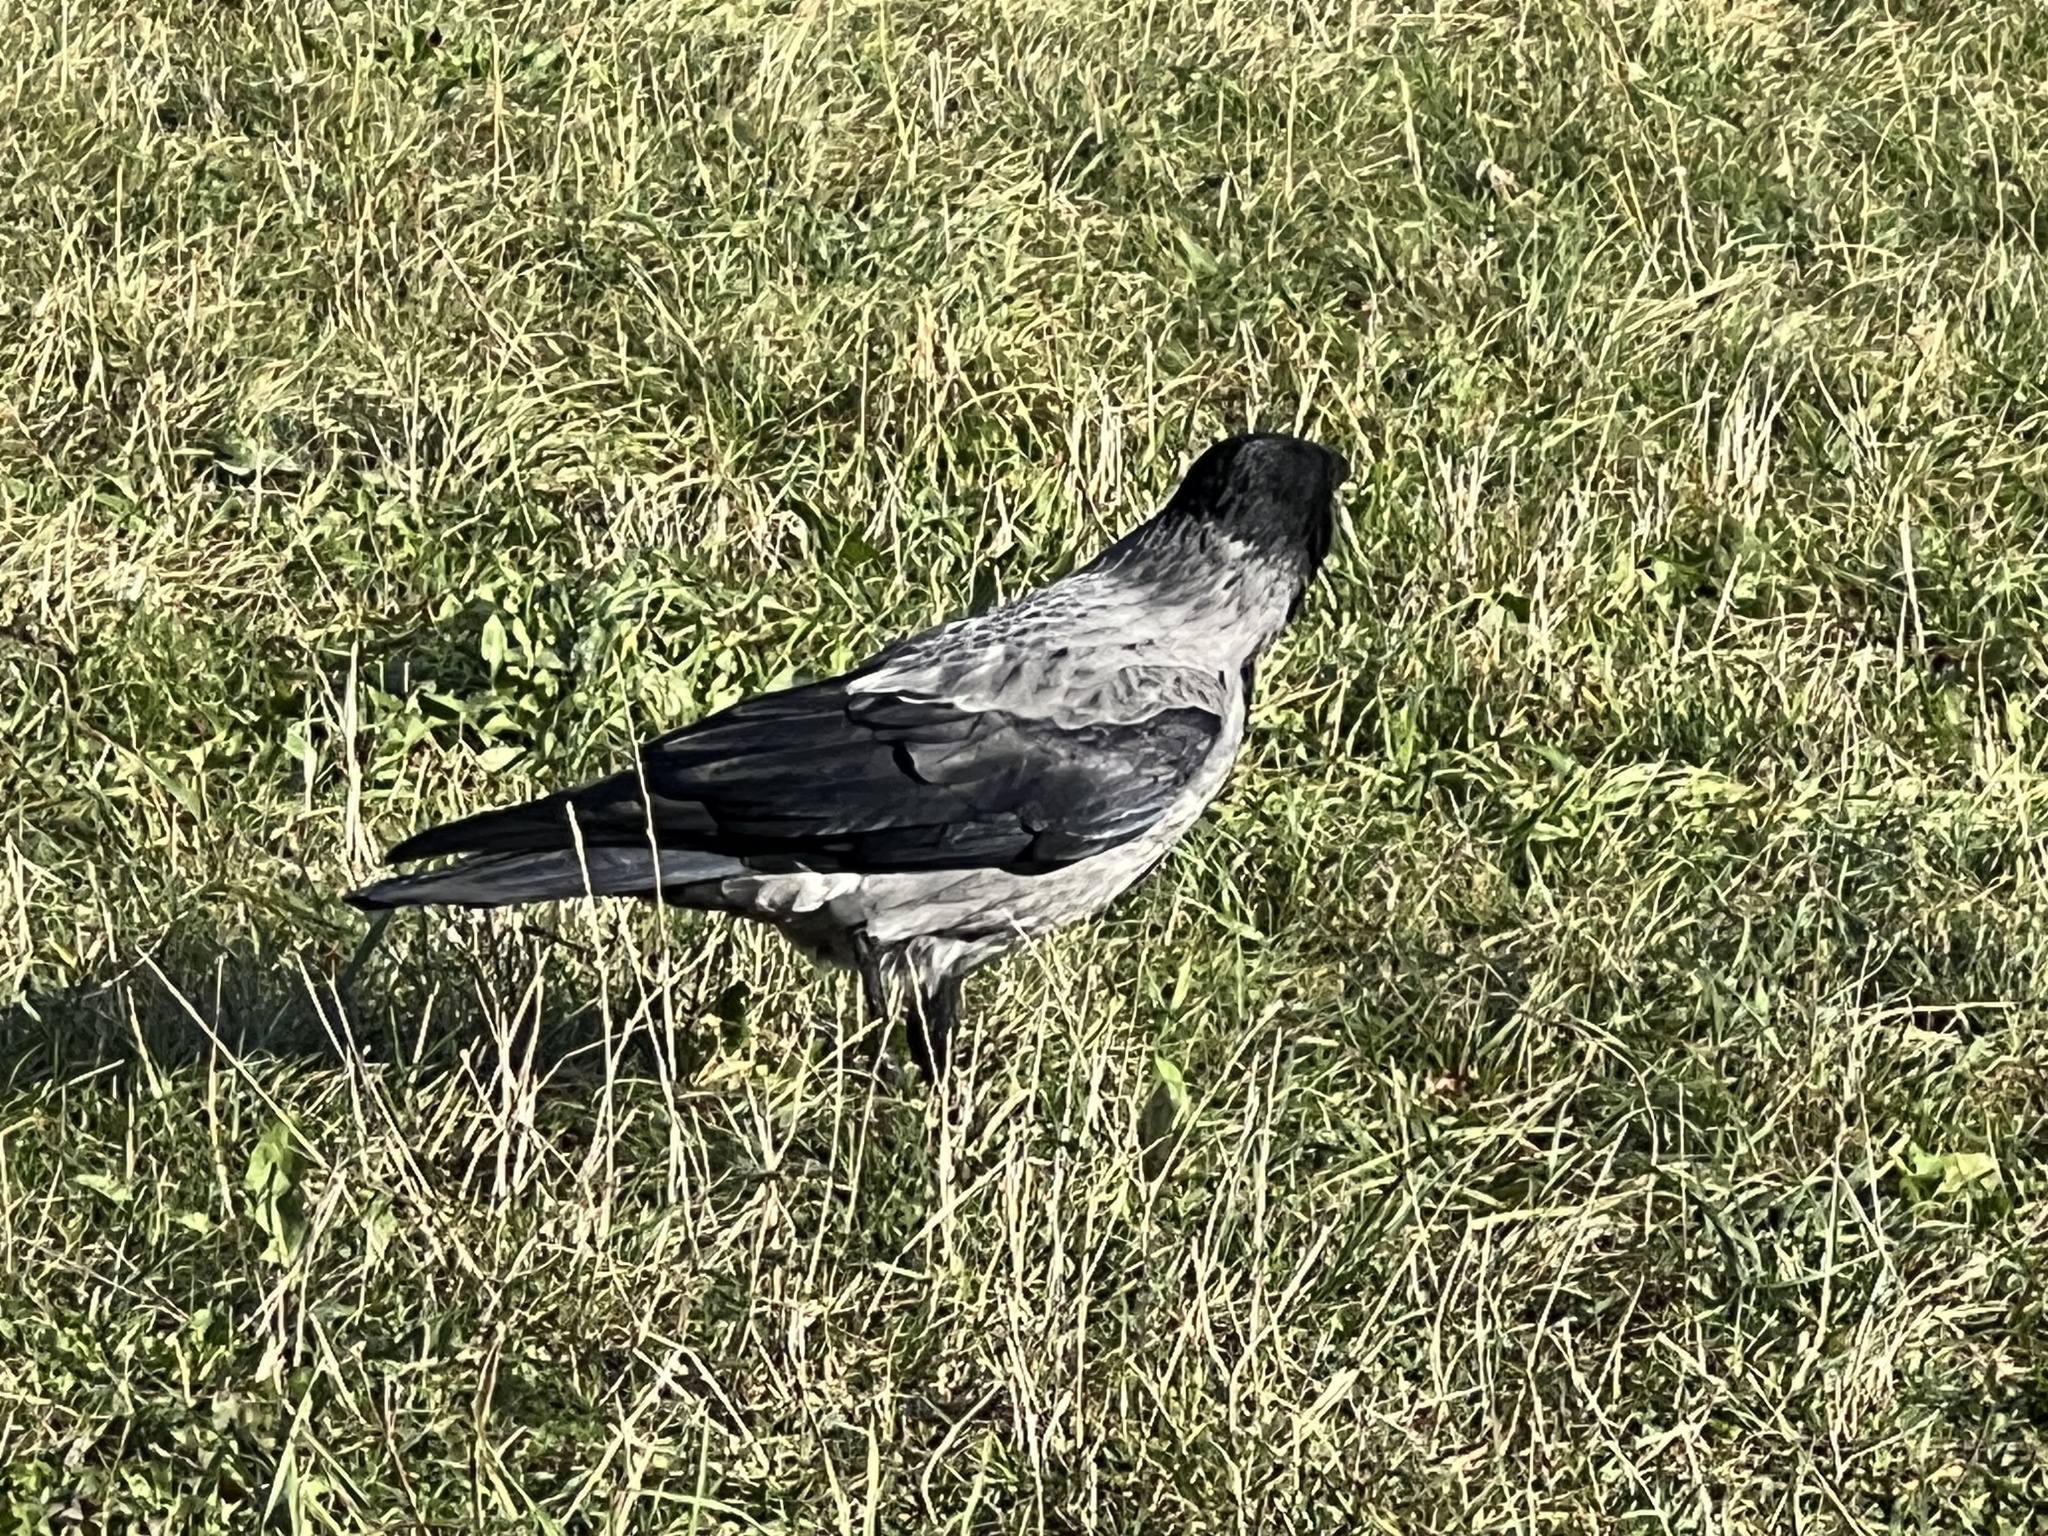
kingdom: Animalia
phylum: Chordata
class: Aves
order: Passeriformes
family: Corvidae
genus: Corvus
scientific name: Corvus cornix
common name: Hooded crow
